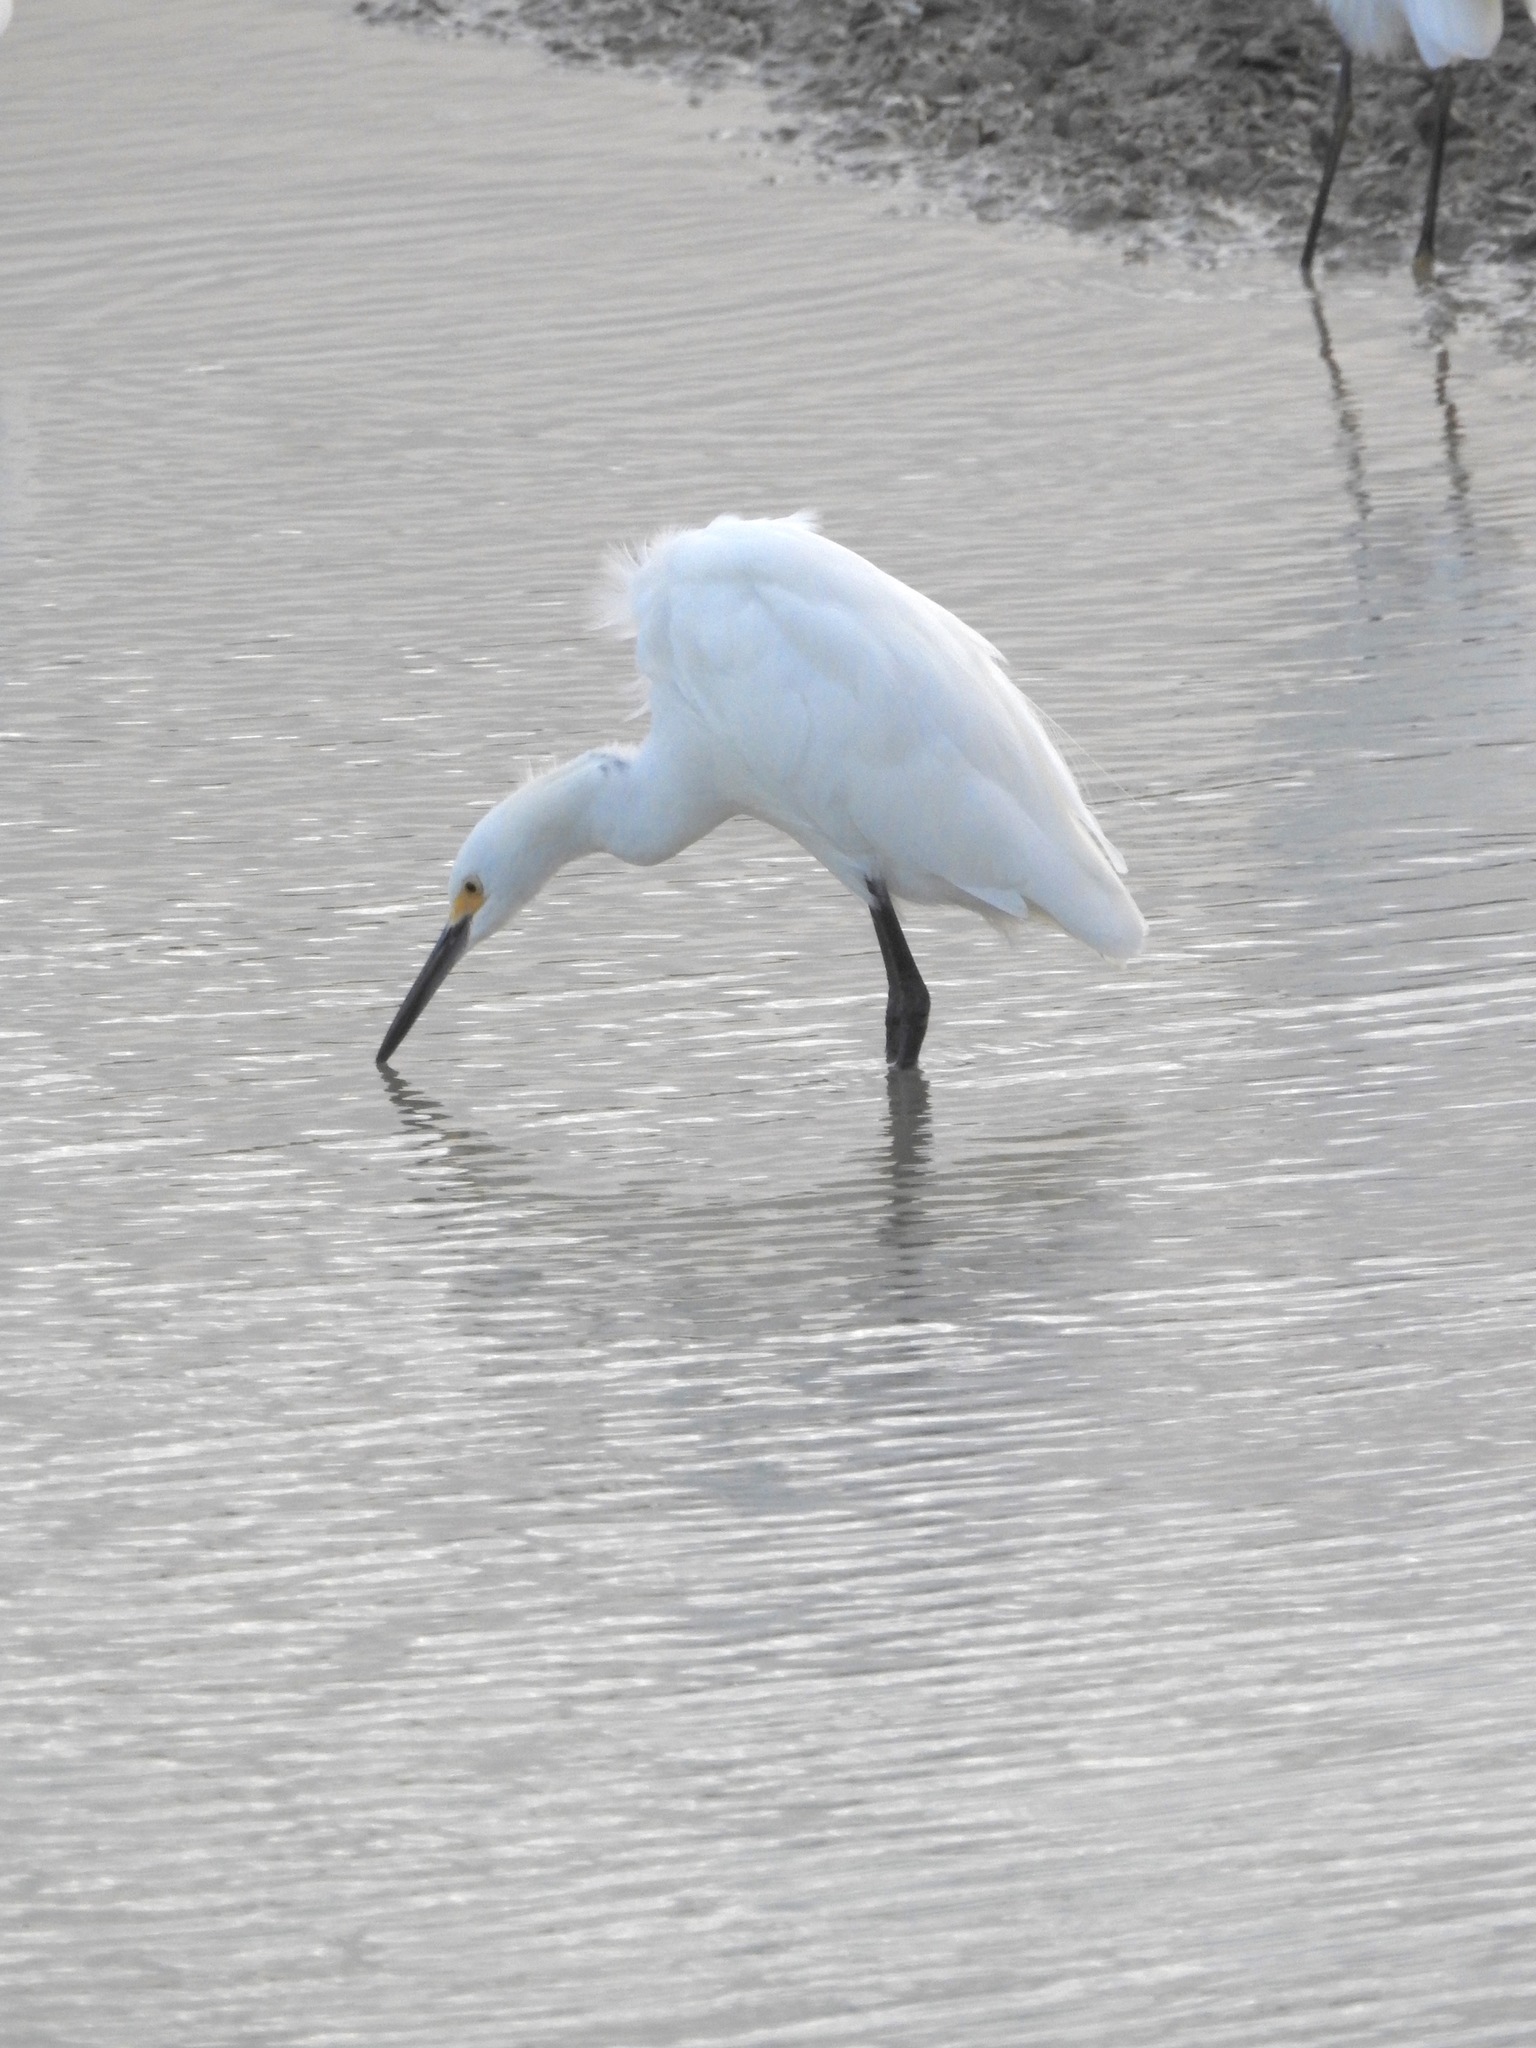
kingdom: Animalia
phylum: Chordata
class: Aves
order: Pelecaniformes
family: Ardeidae
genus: Egretta
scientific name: Egretta thula
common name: Snowy egret
